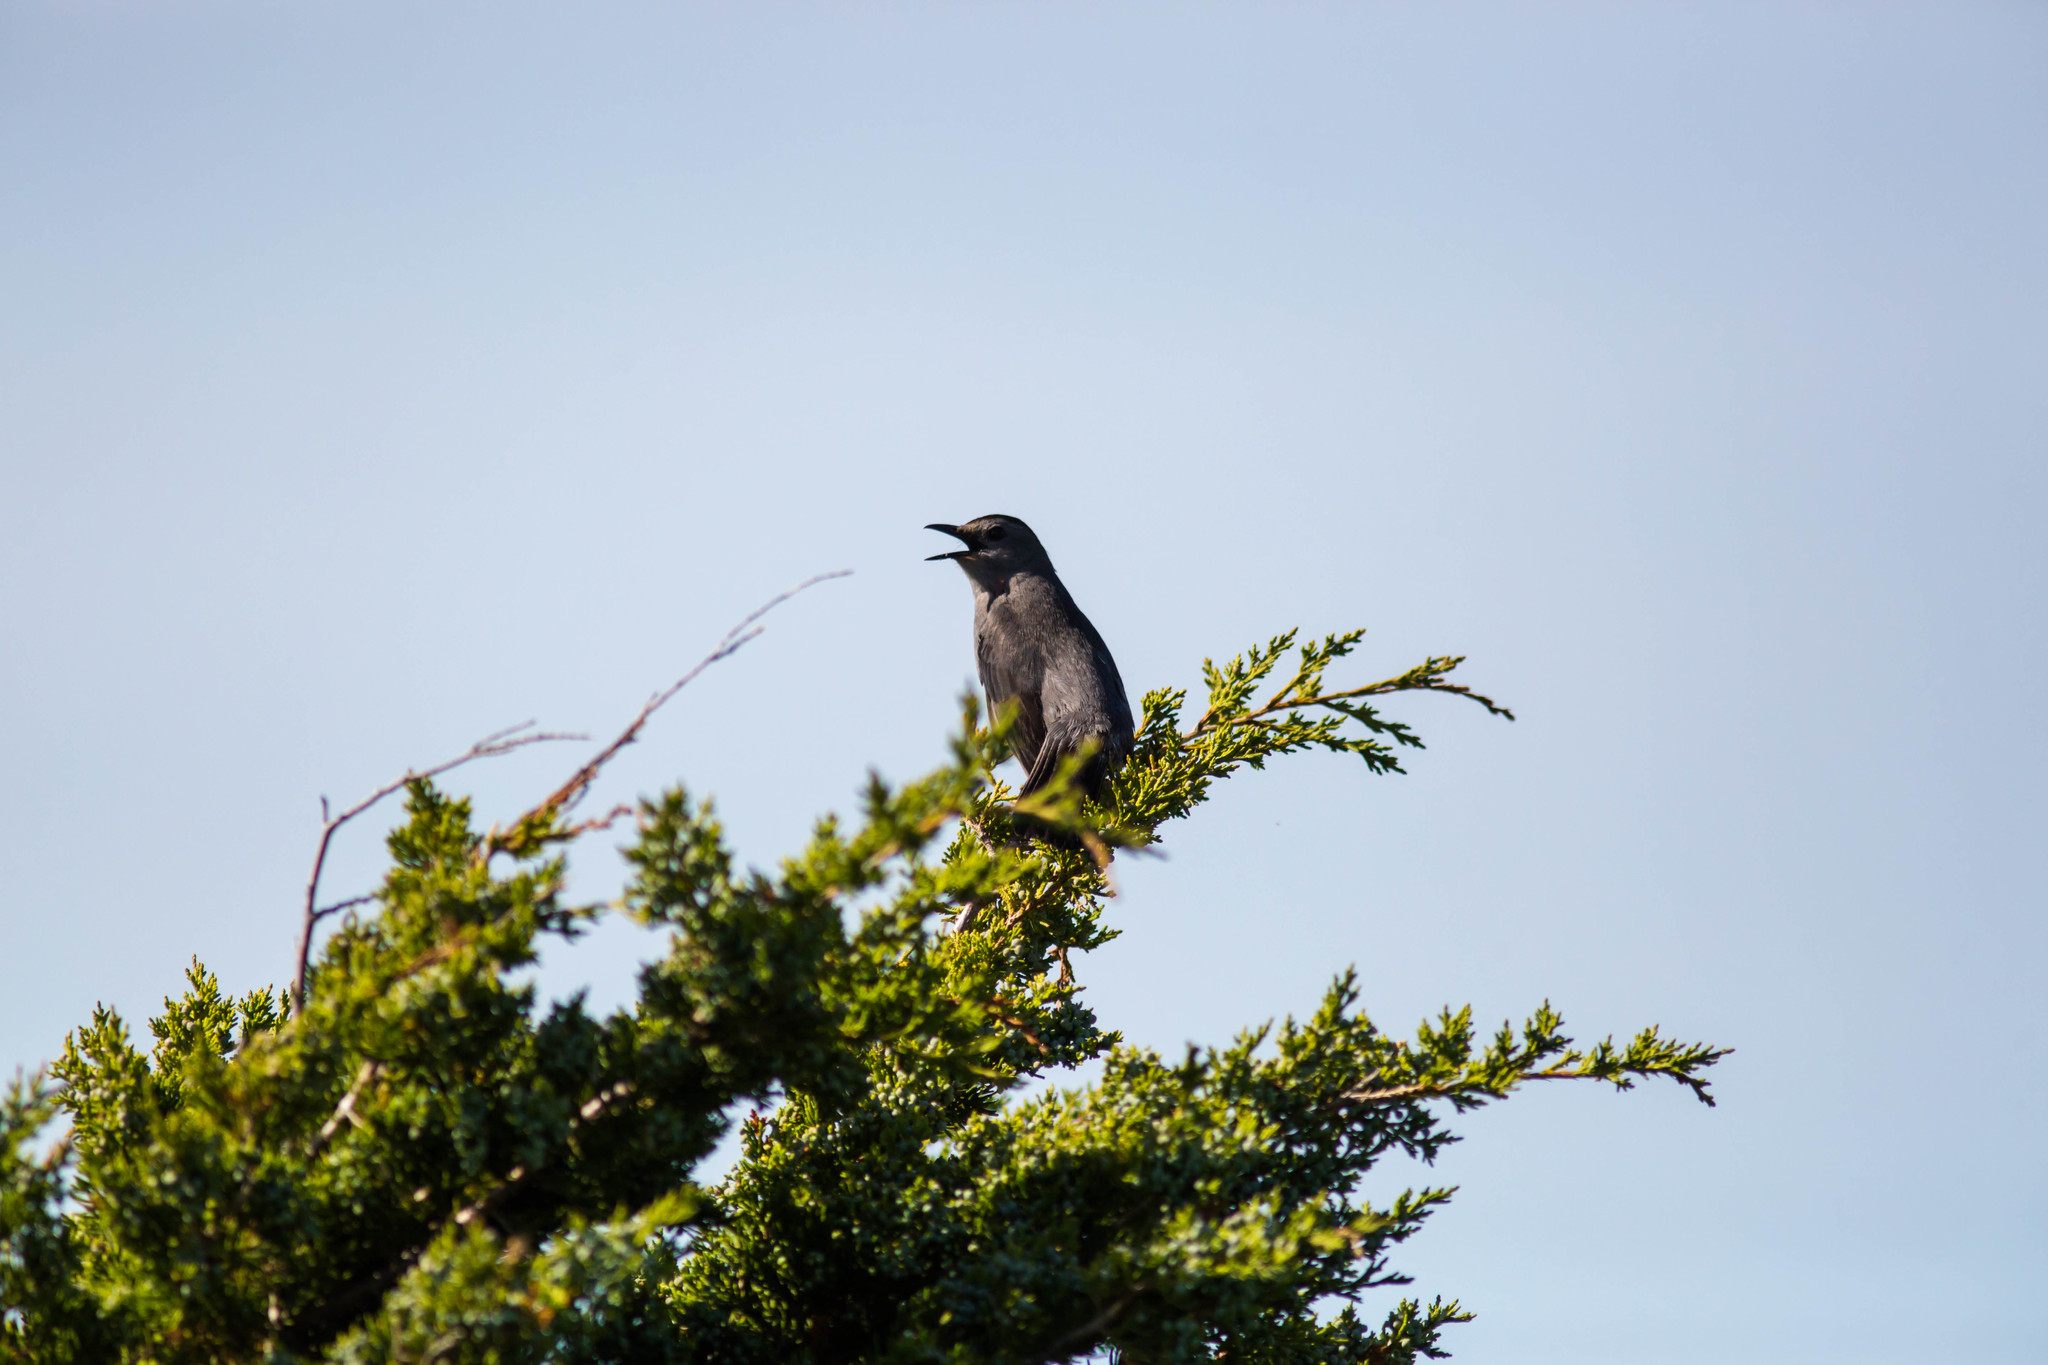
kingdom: Animalia
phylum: Chordata
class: Aves
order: Passeriformes
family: Mimidae
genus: Dumetella
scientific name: Dumetella carolinensis
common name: Gray catbird
